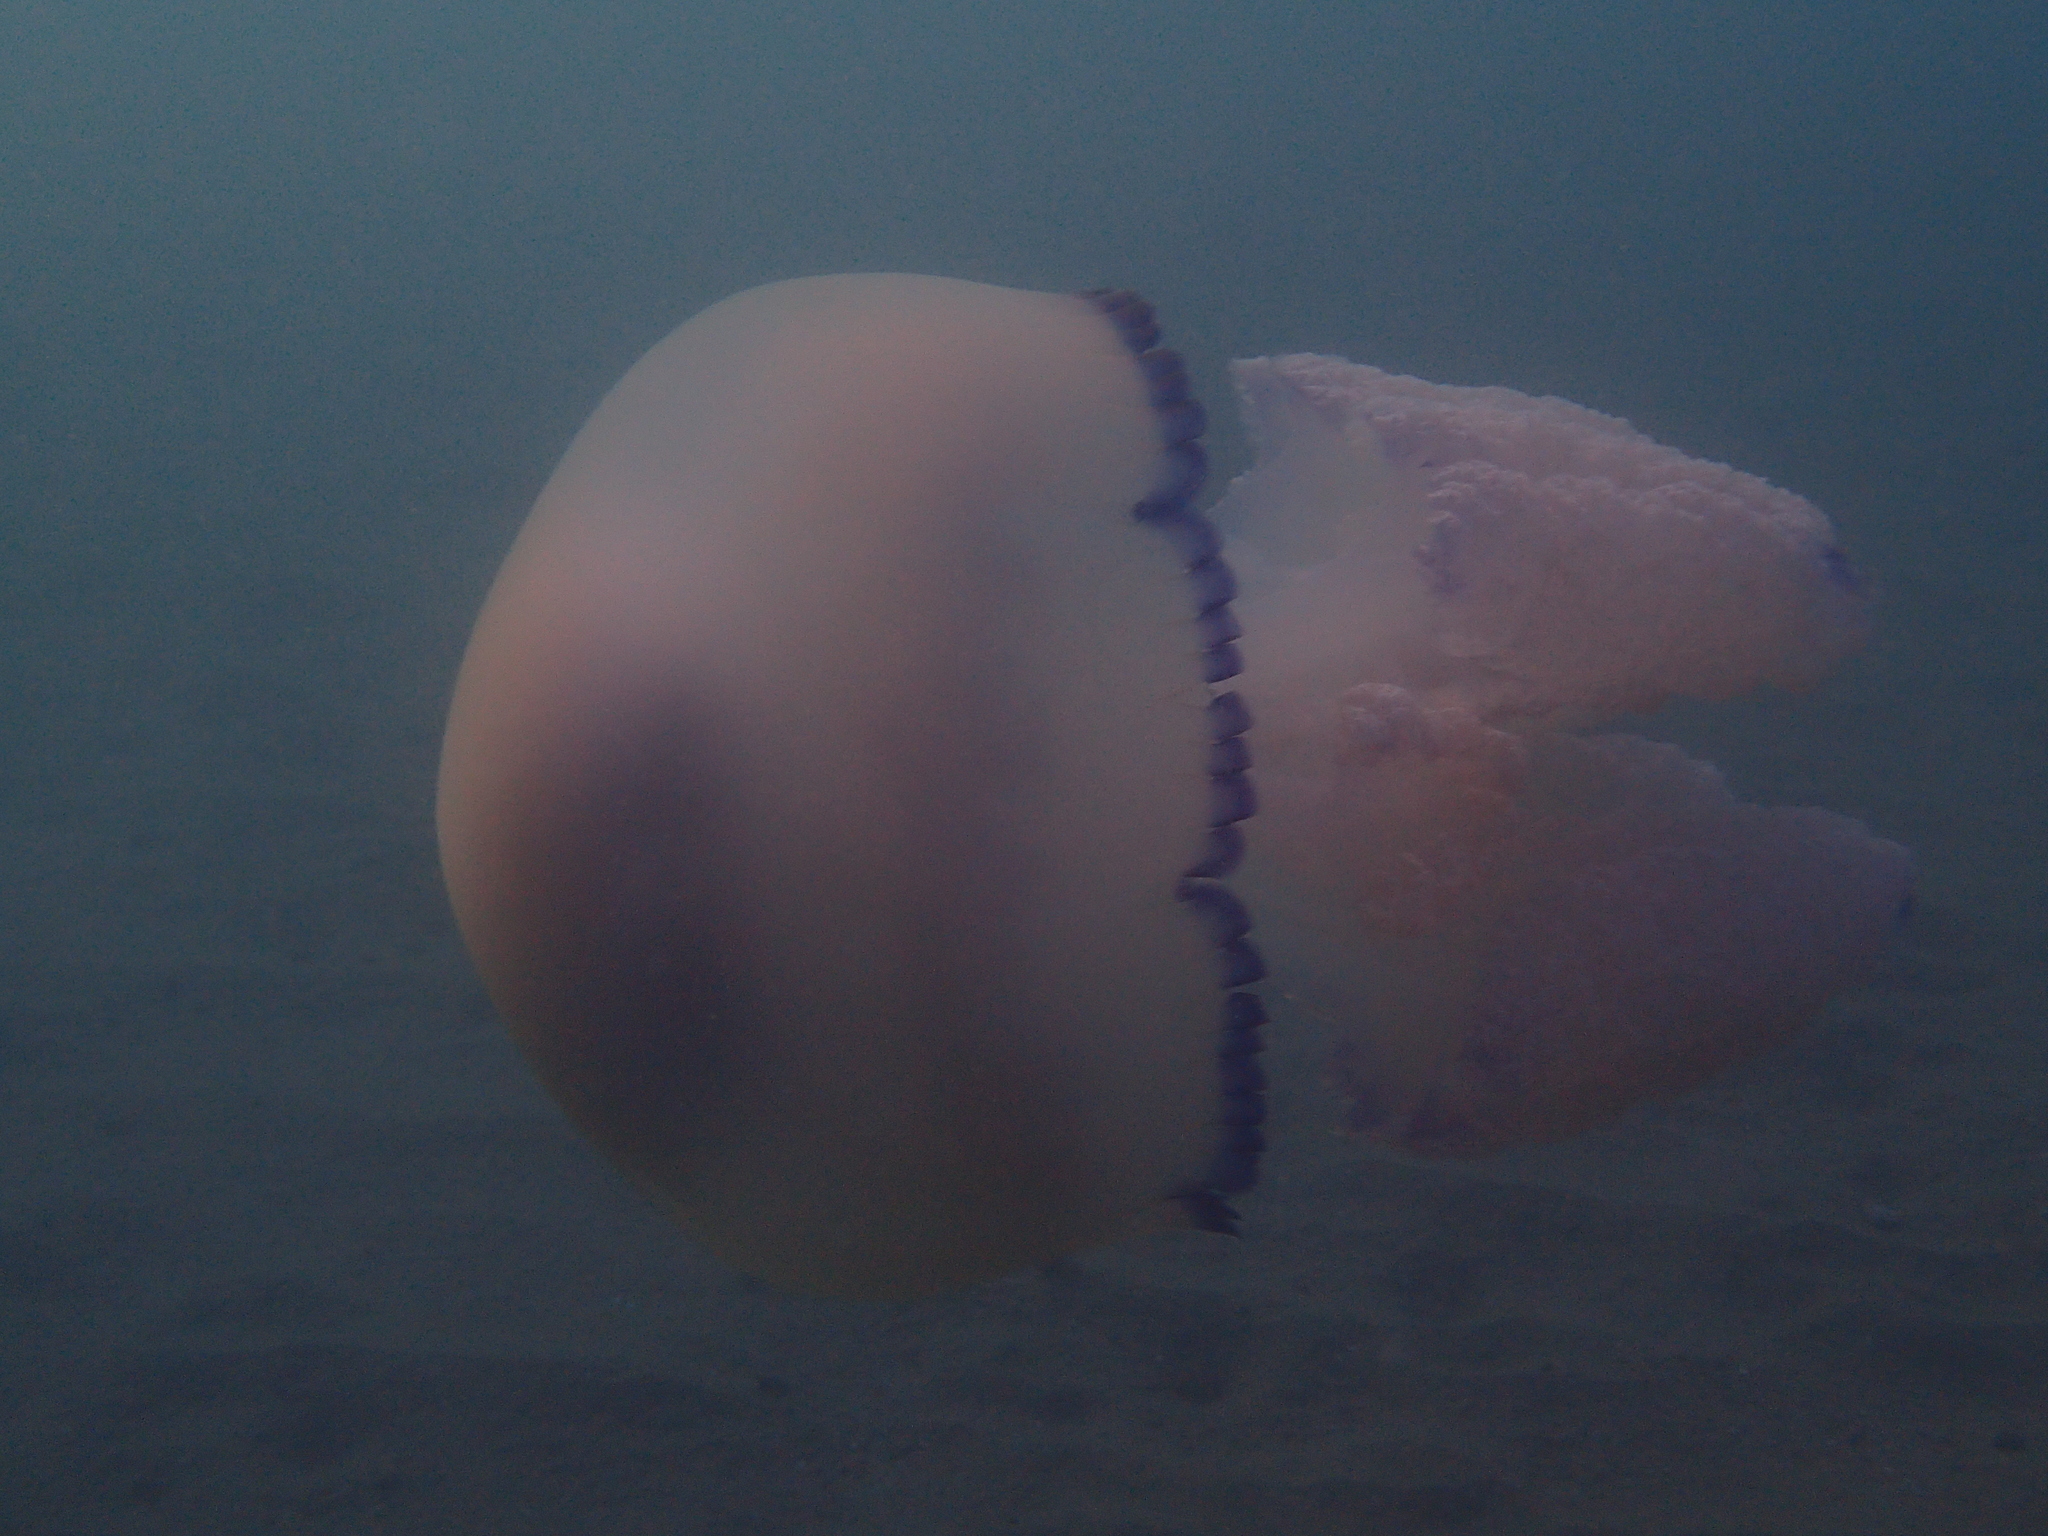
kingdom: Animalia
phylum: Cnidaria
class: Scyphozoa
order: Rhizostomeae
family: Rhizostomatidae
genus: Rhizostoma
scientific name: Rhizostoma pulmo
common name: Barrel jellyfish
